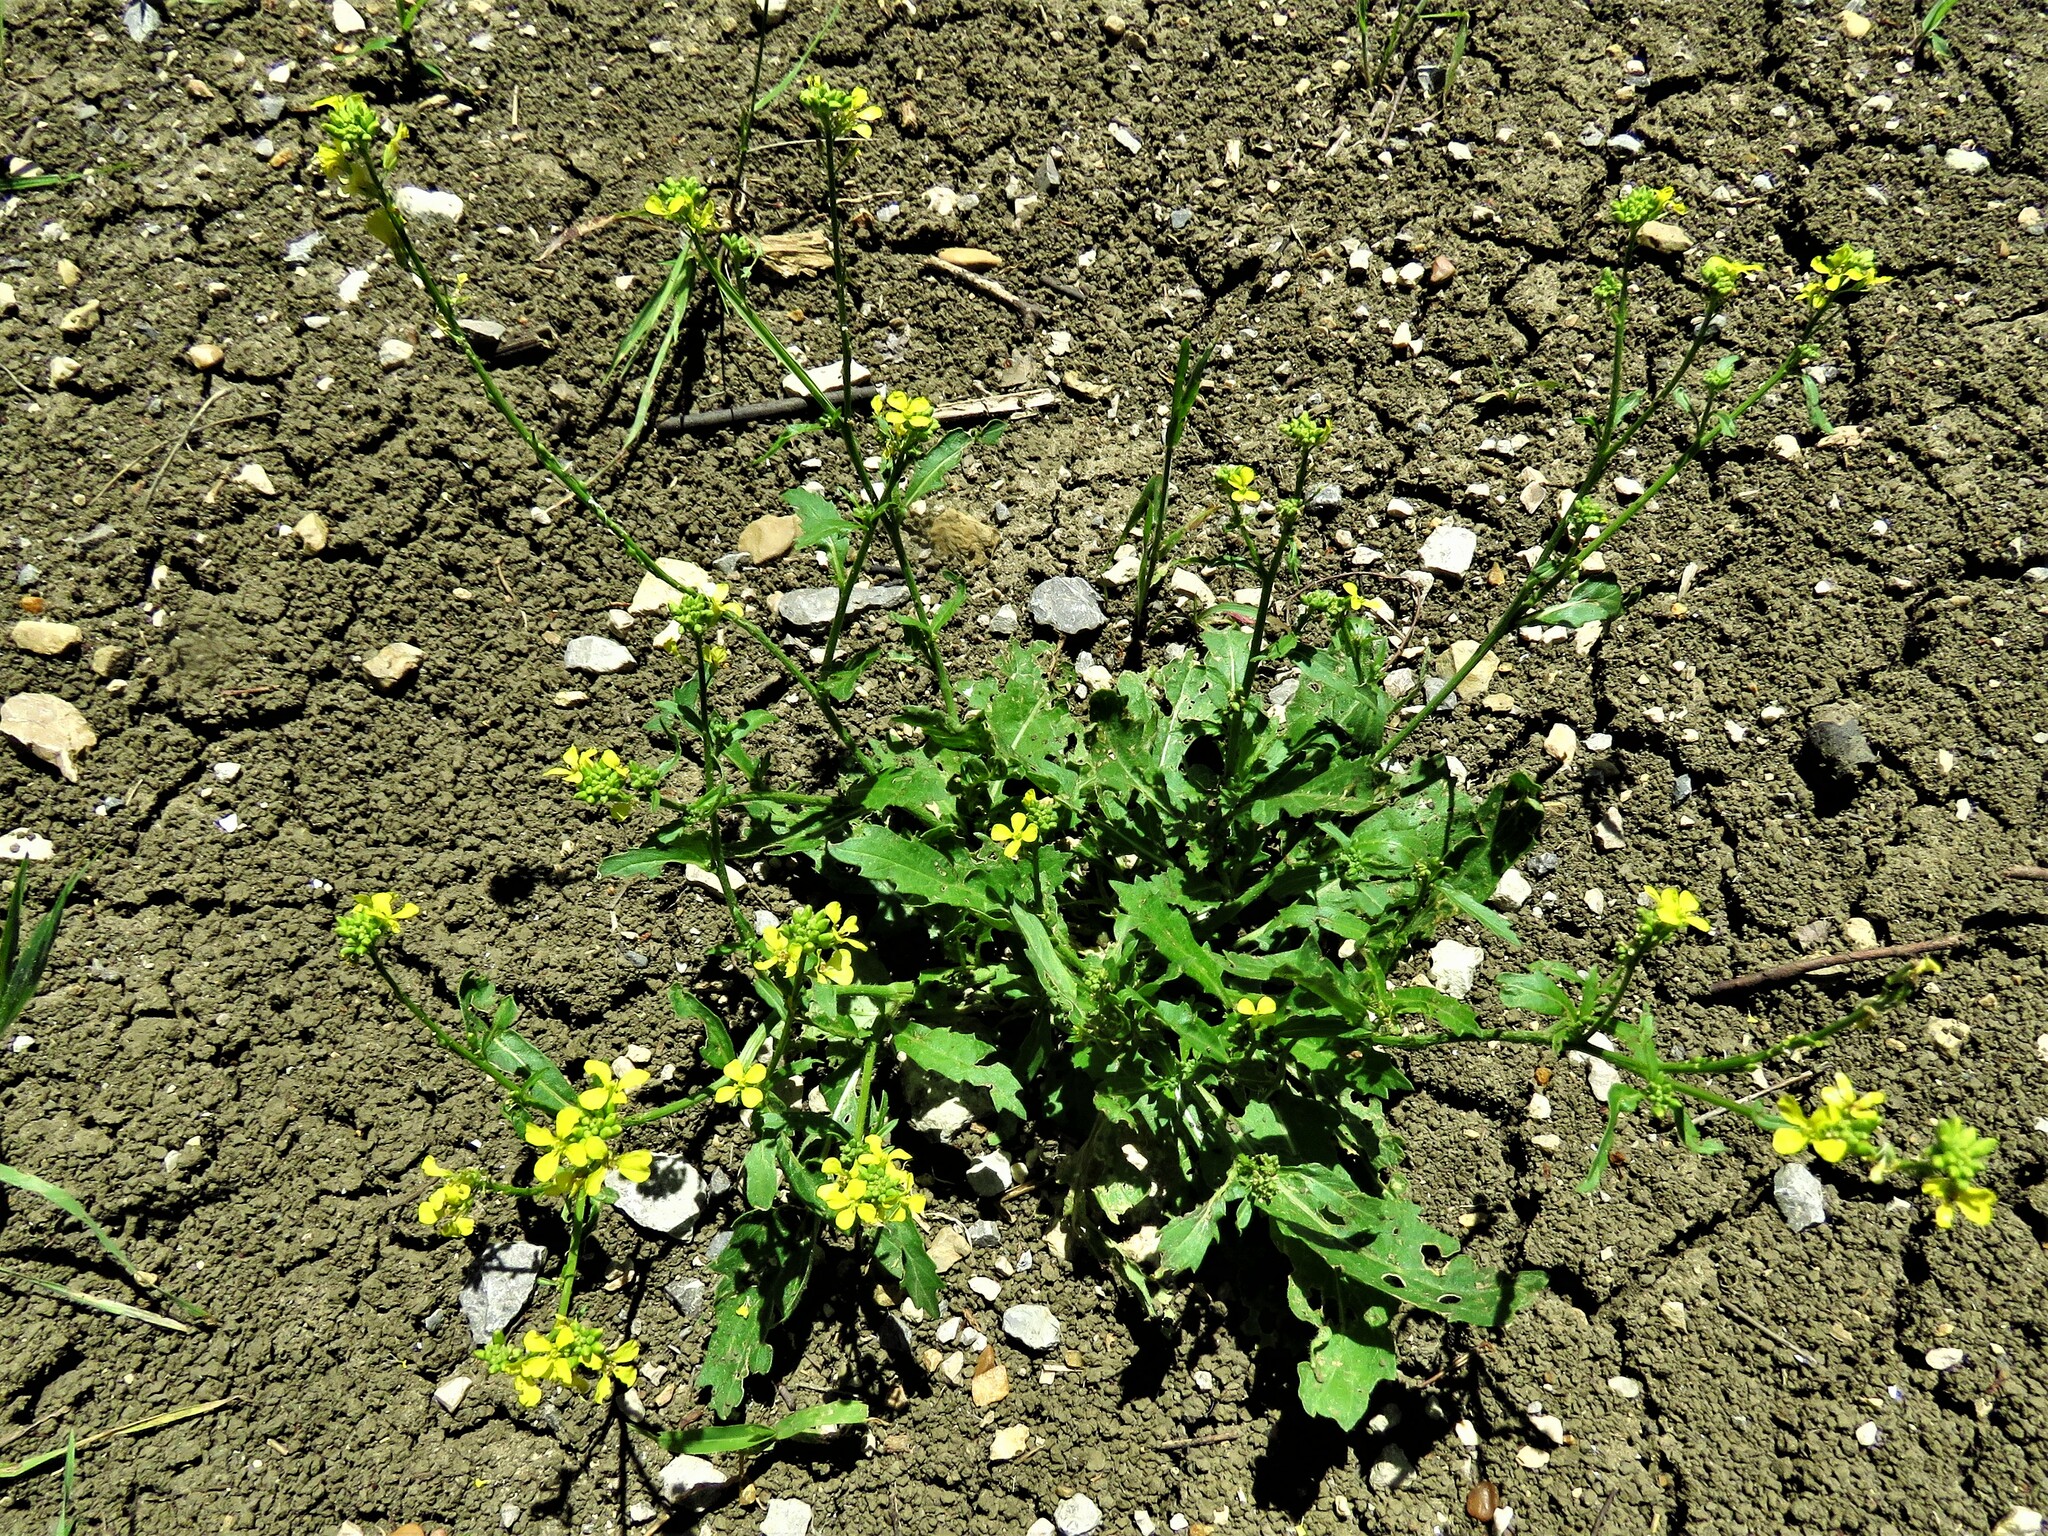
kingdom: Plantae
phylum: Tracheophyta
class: Magnoliopsida
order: Brassicales
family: Brassicaceae
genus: Rapistrum
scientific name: Rapistrum rugosum
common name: Annual bastardcabbage
